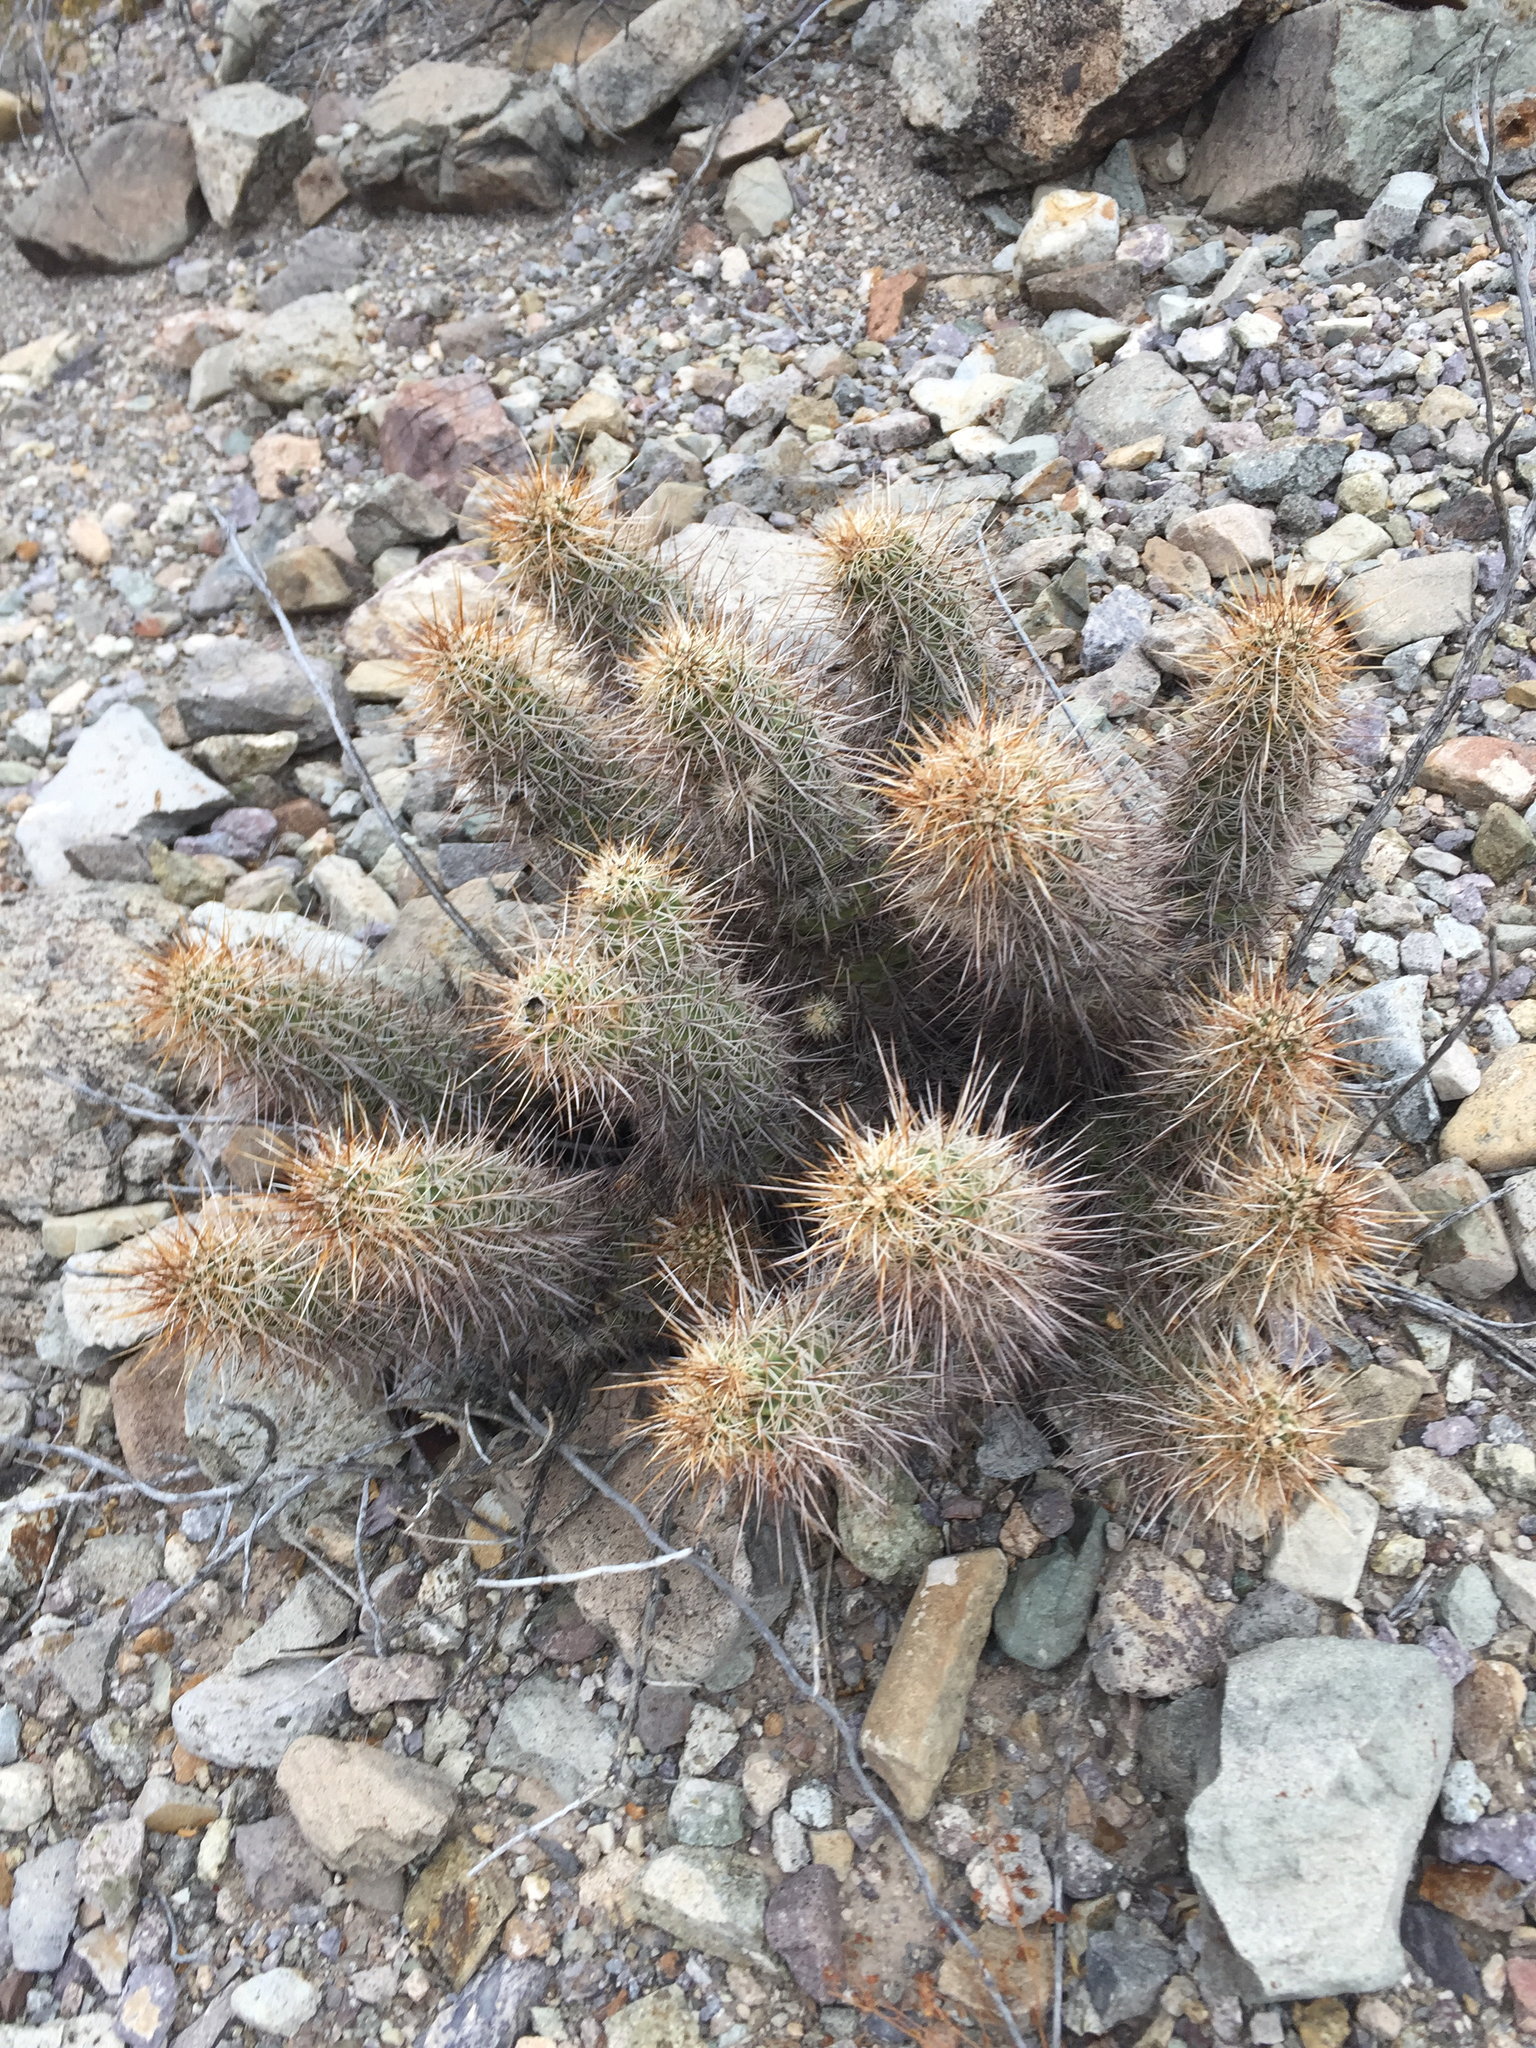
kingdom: Plantae
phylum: Tracheophyta
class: Magnoliopsida
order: Caryophyllales
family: Cactaceae
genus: Echinocereus
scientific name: Echinocereus engelmannii
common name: Engelmann's hedgehog cactus
